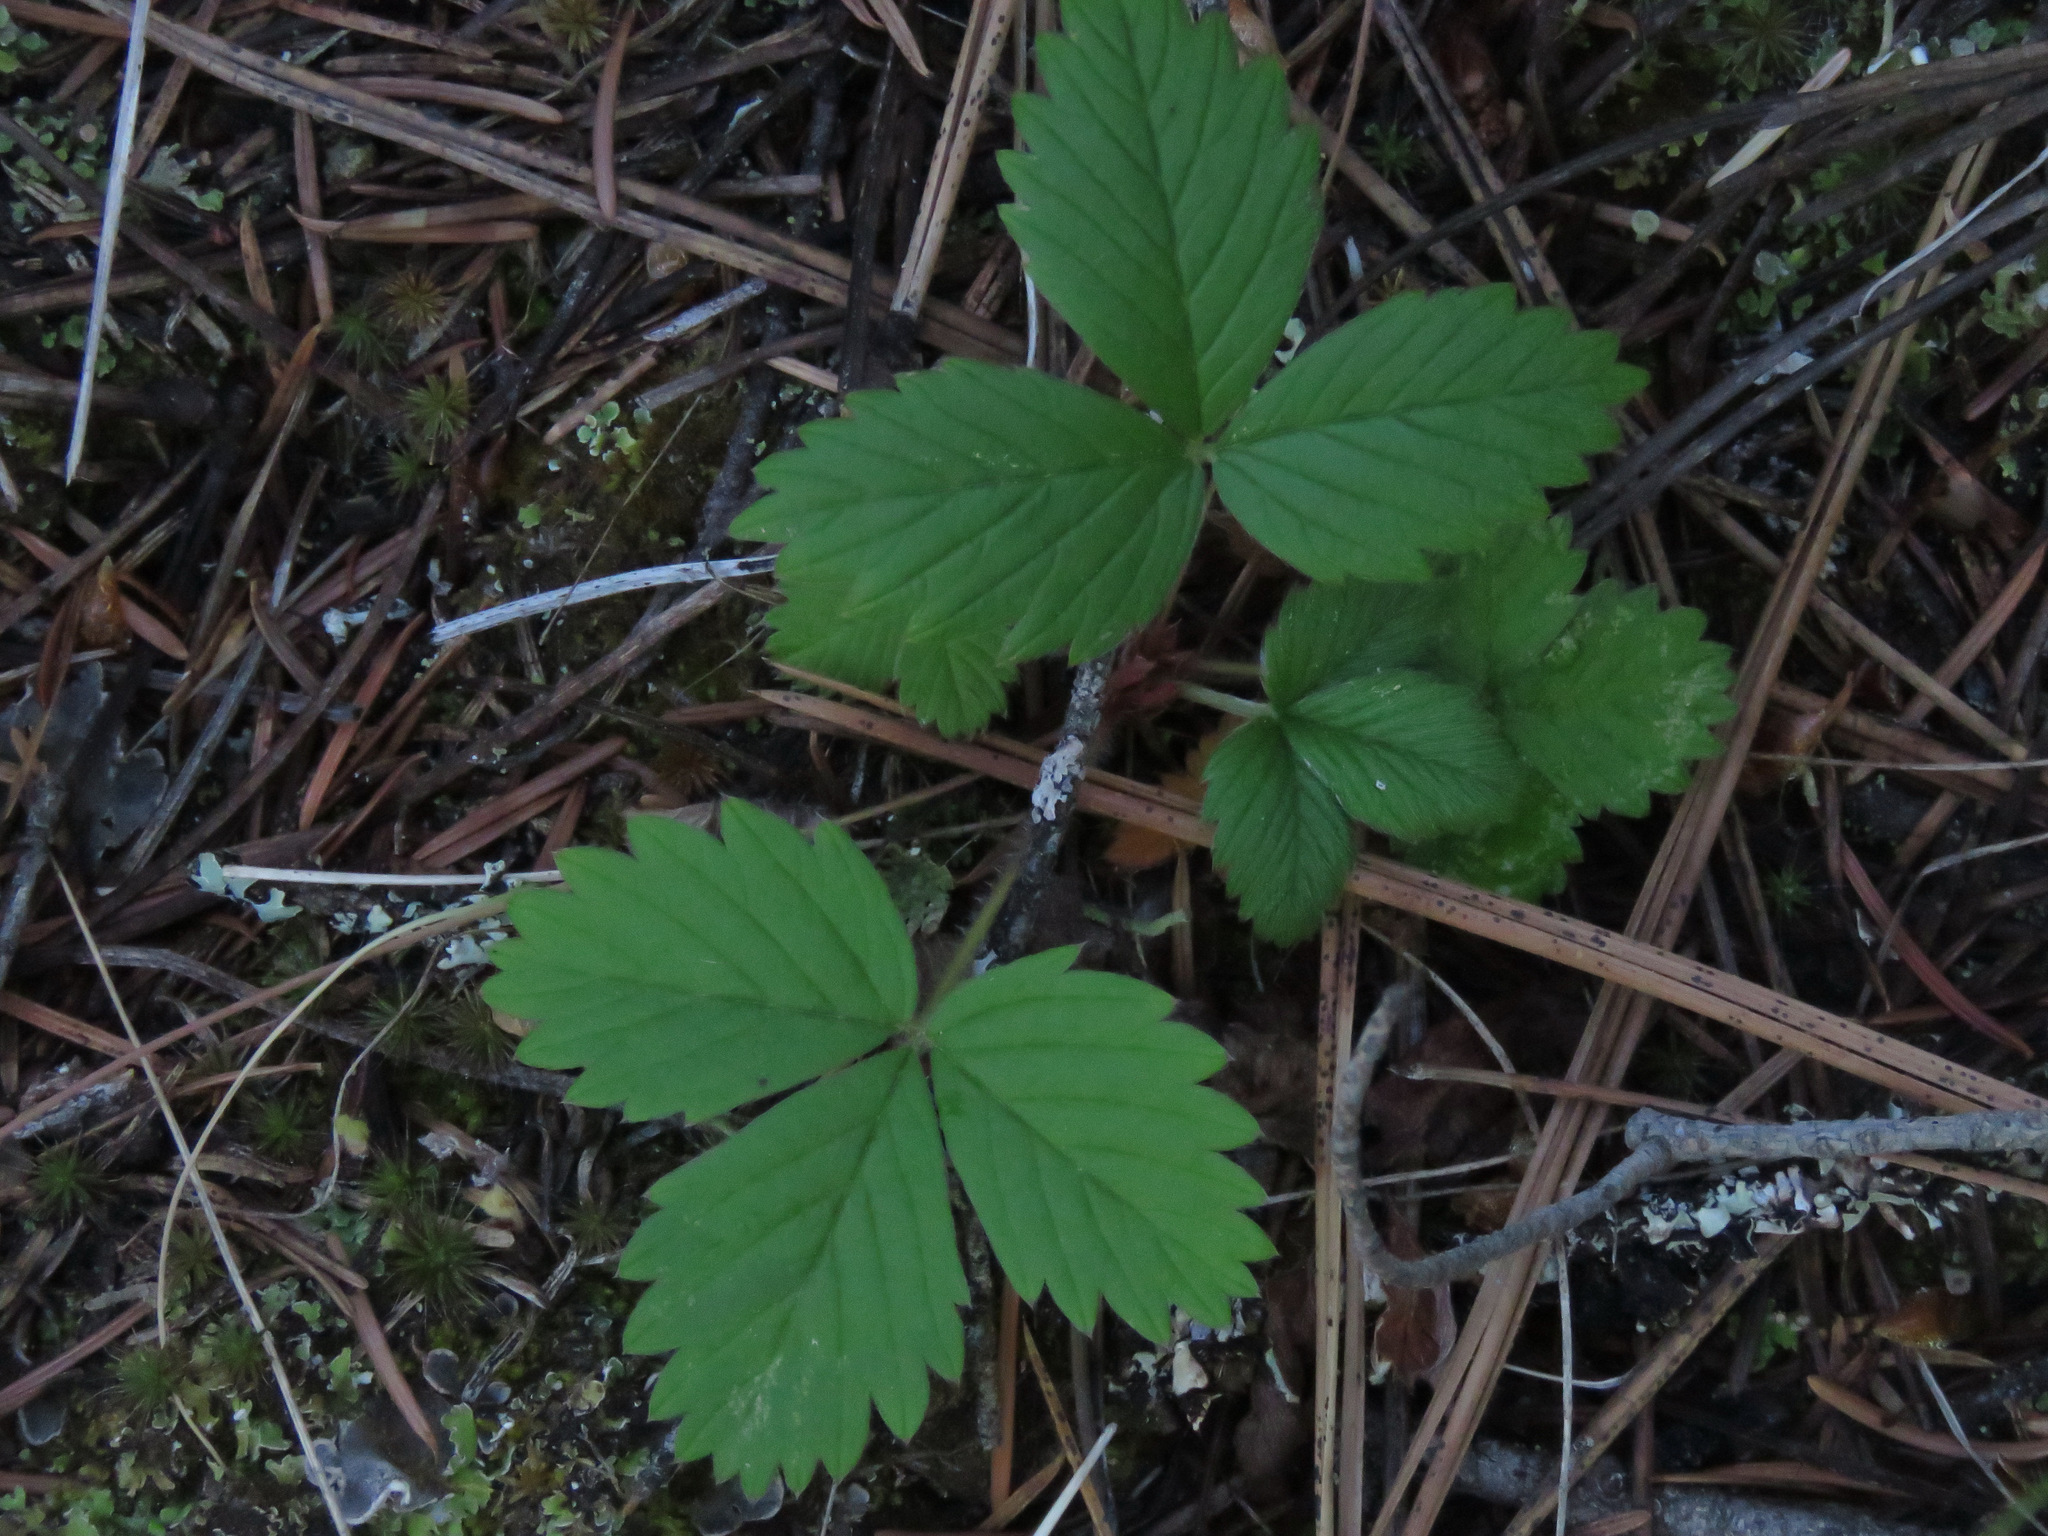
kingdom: Plantae
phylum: Tracheophyta
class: Magnoliopsida
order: Rosales
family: Rosaceae
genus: Fragaria
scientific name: Fragaria vesca
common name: Wild strawberry
